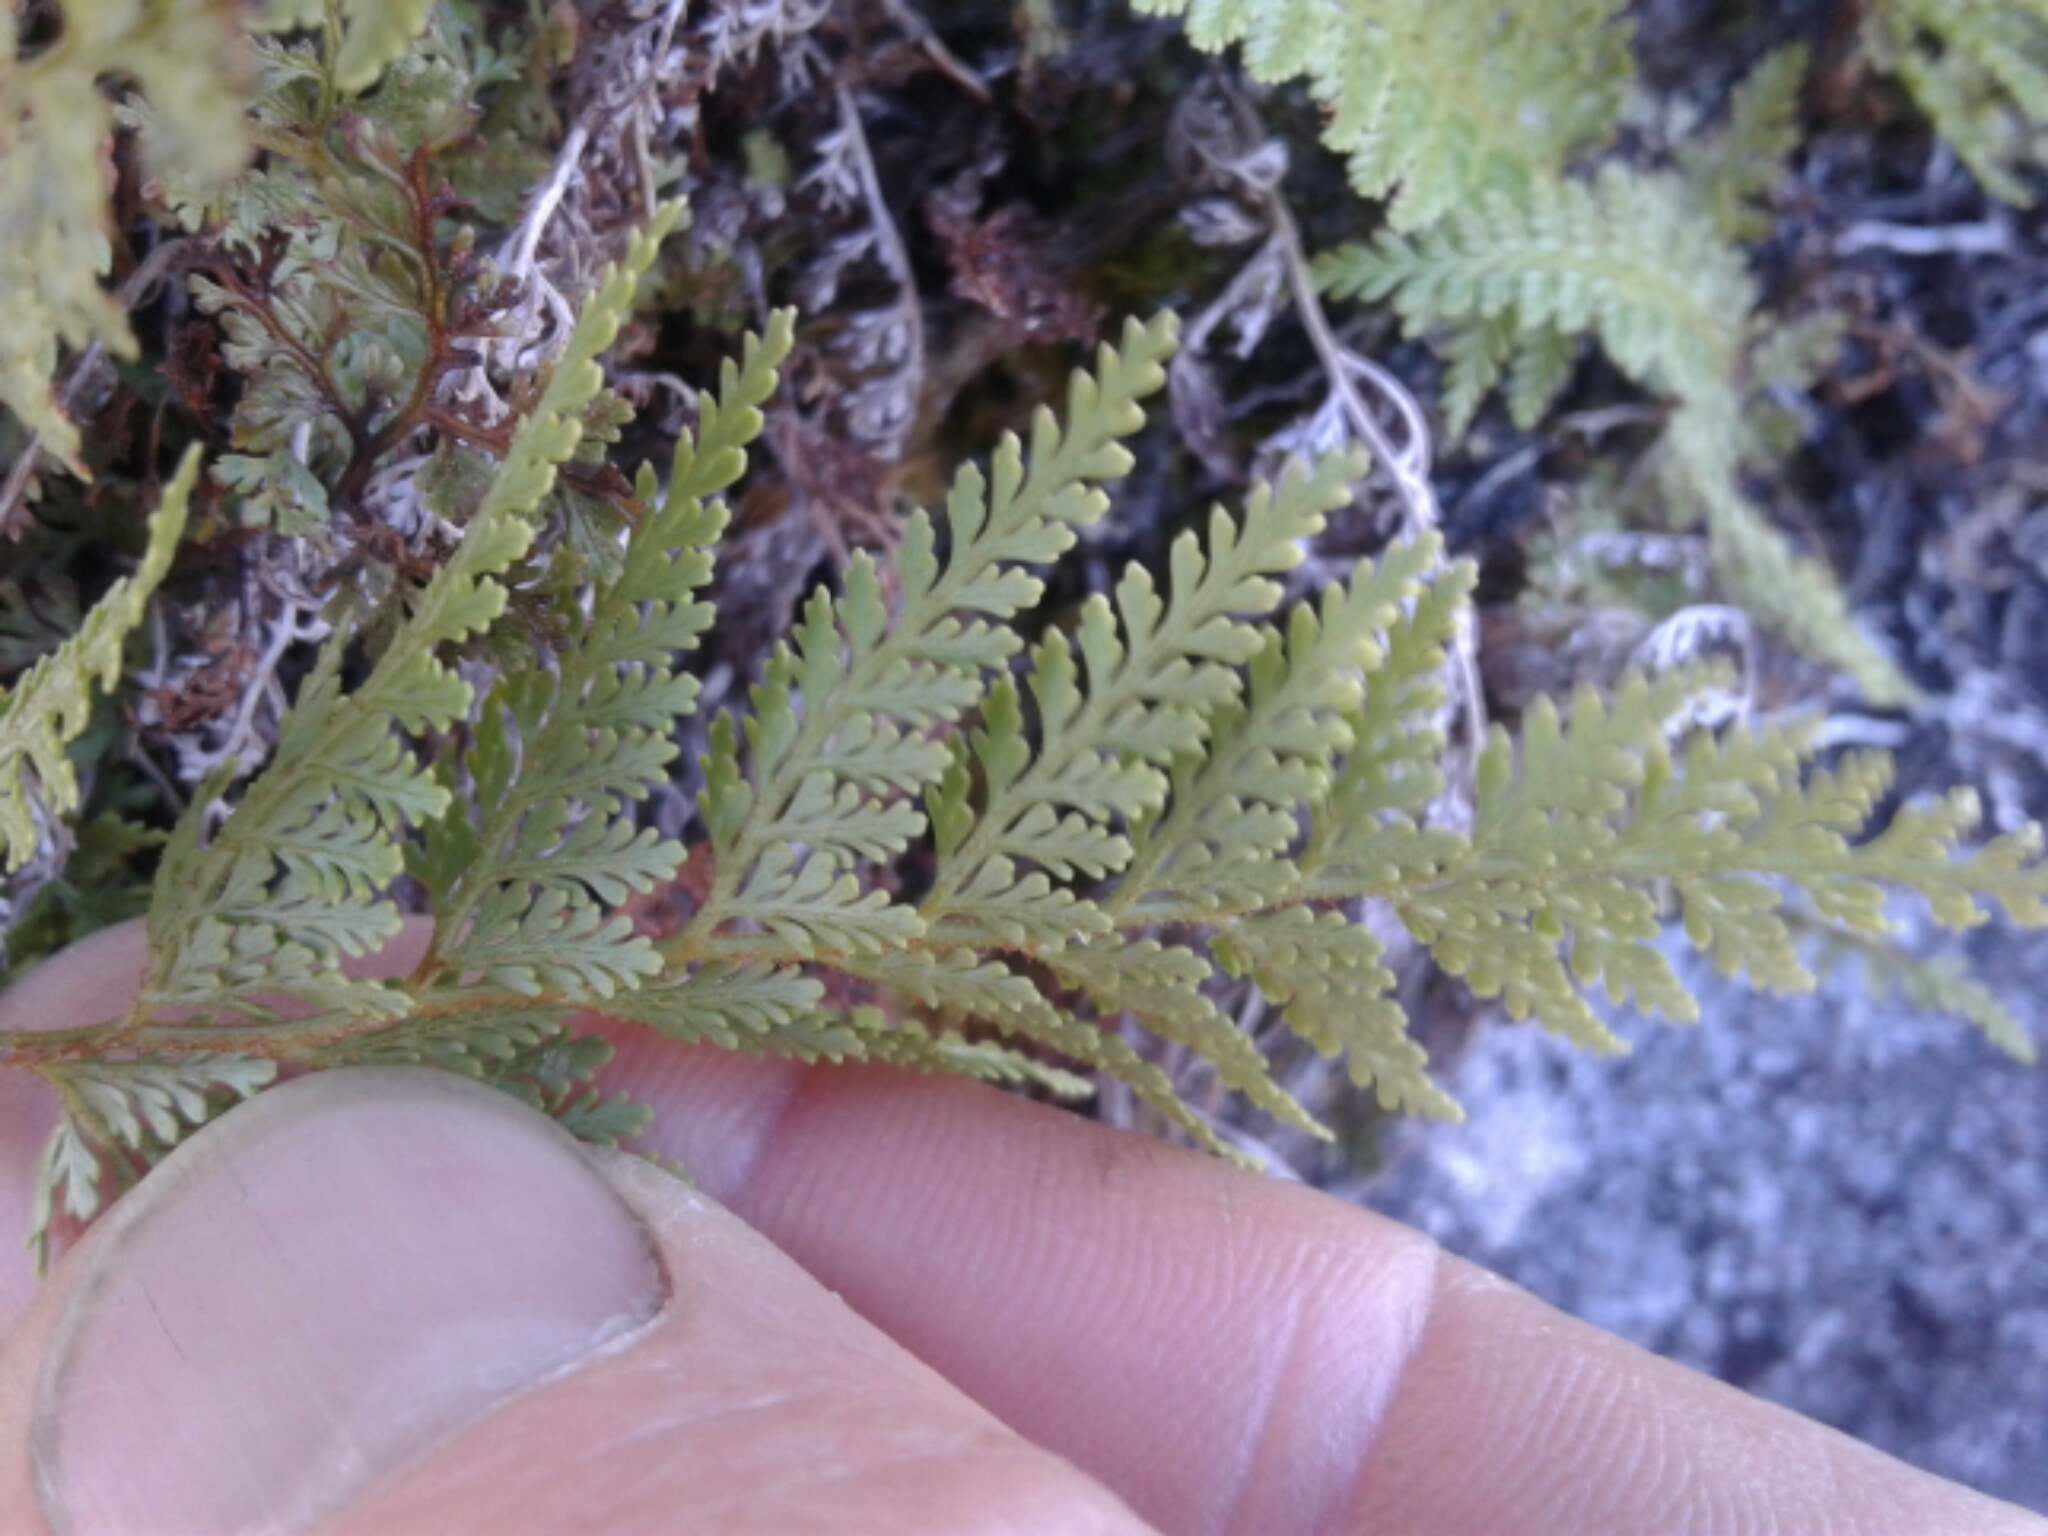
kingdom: Plantae
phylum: Tracheophyta
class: Polypodiopsida
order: Polypodiales
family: Dennstaedtiaceae
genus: Paesia
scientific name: Paesia scaberula
